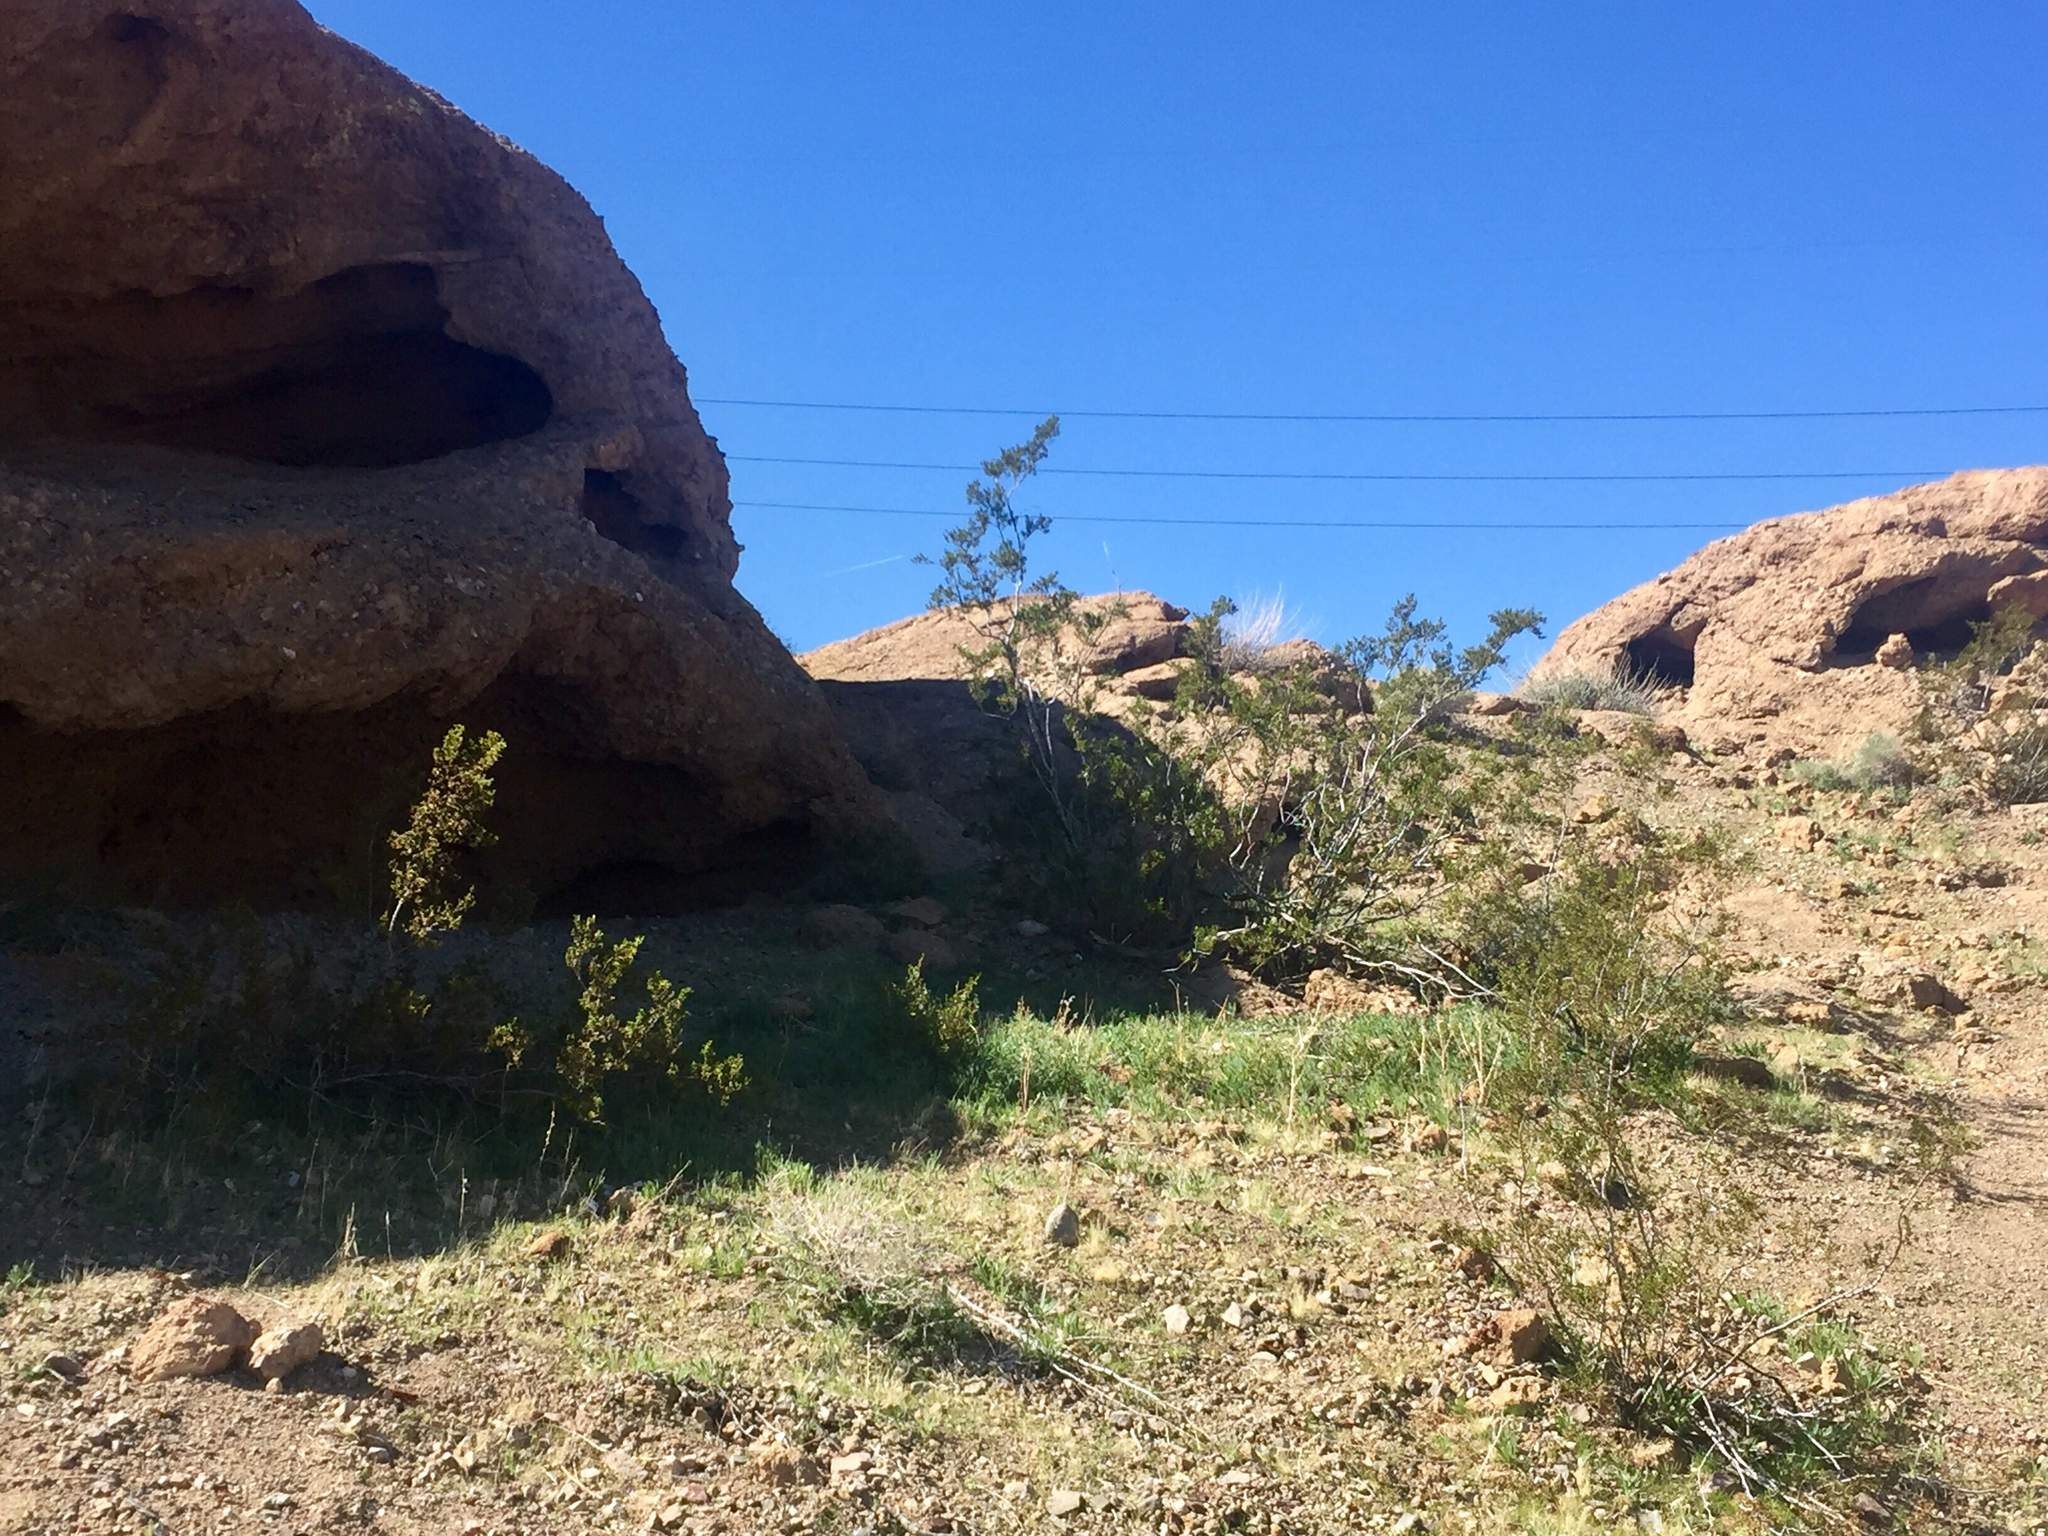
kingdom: Plantae
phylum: Tracheophyta
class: Magnoliopsida
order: Zygophyllales
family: Zygophyllaceae
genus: Larrea
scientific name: Larrea tridentata
